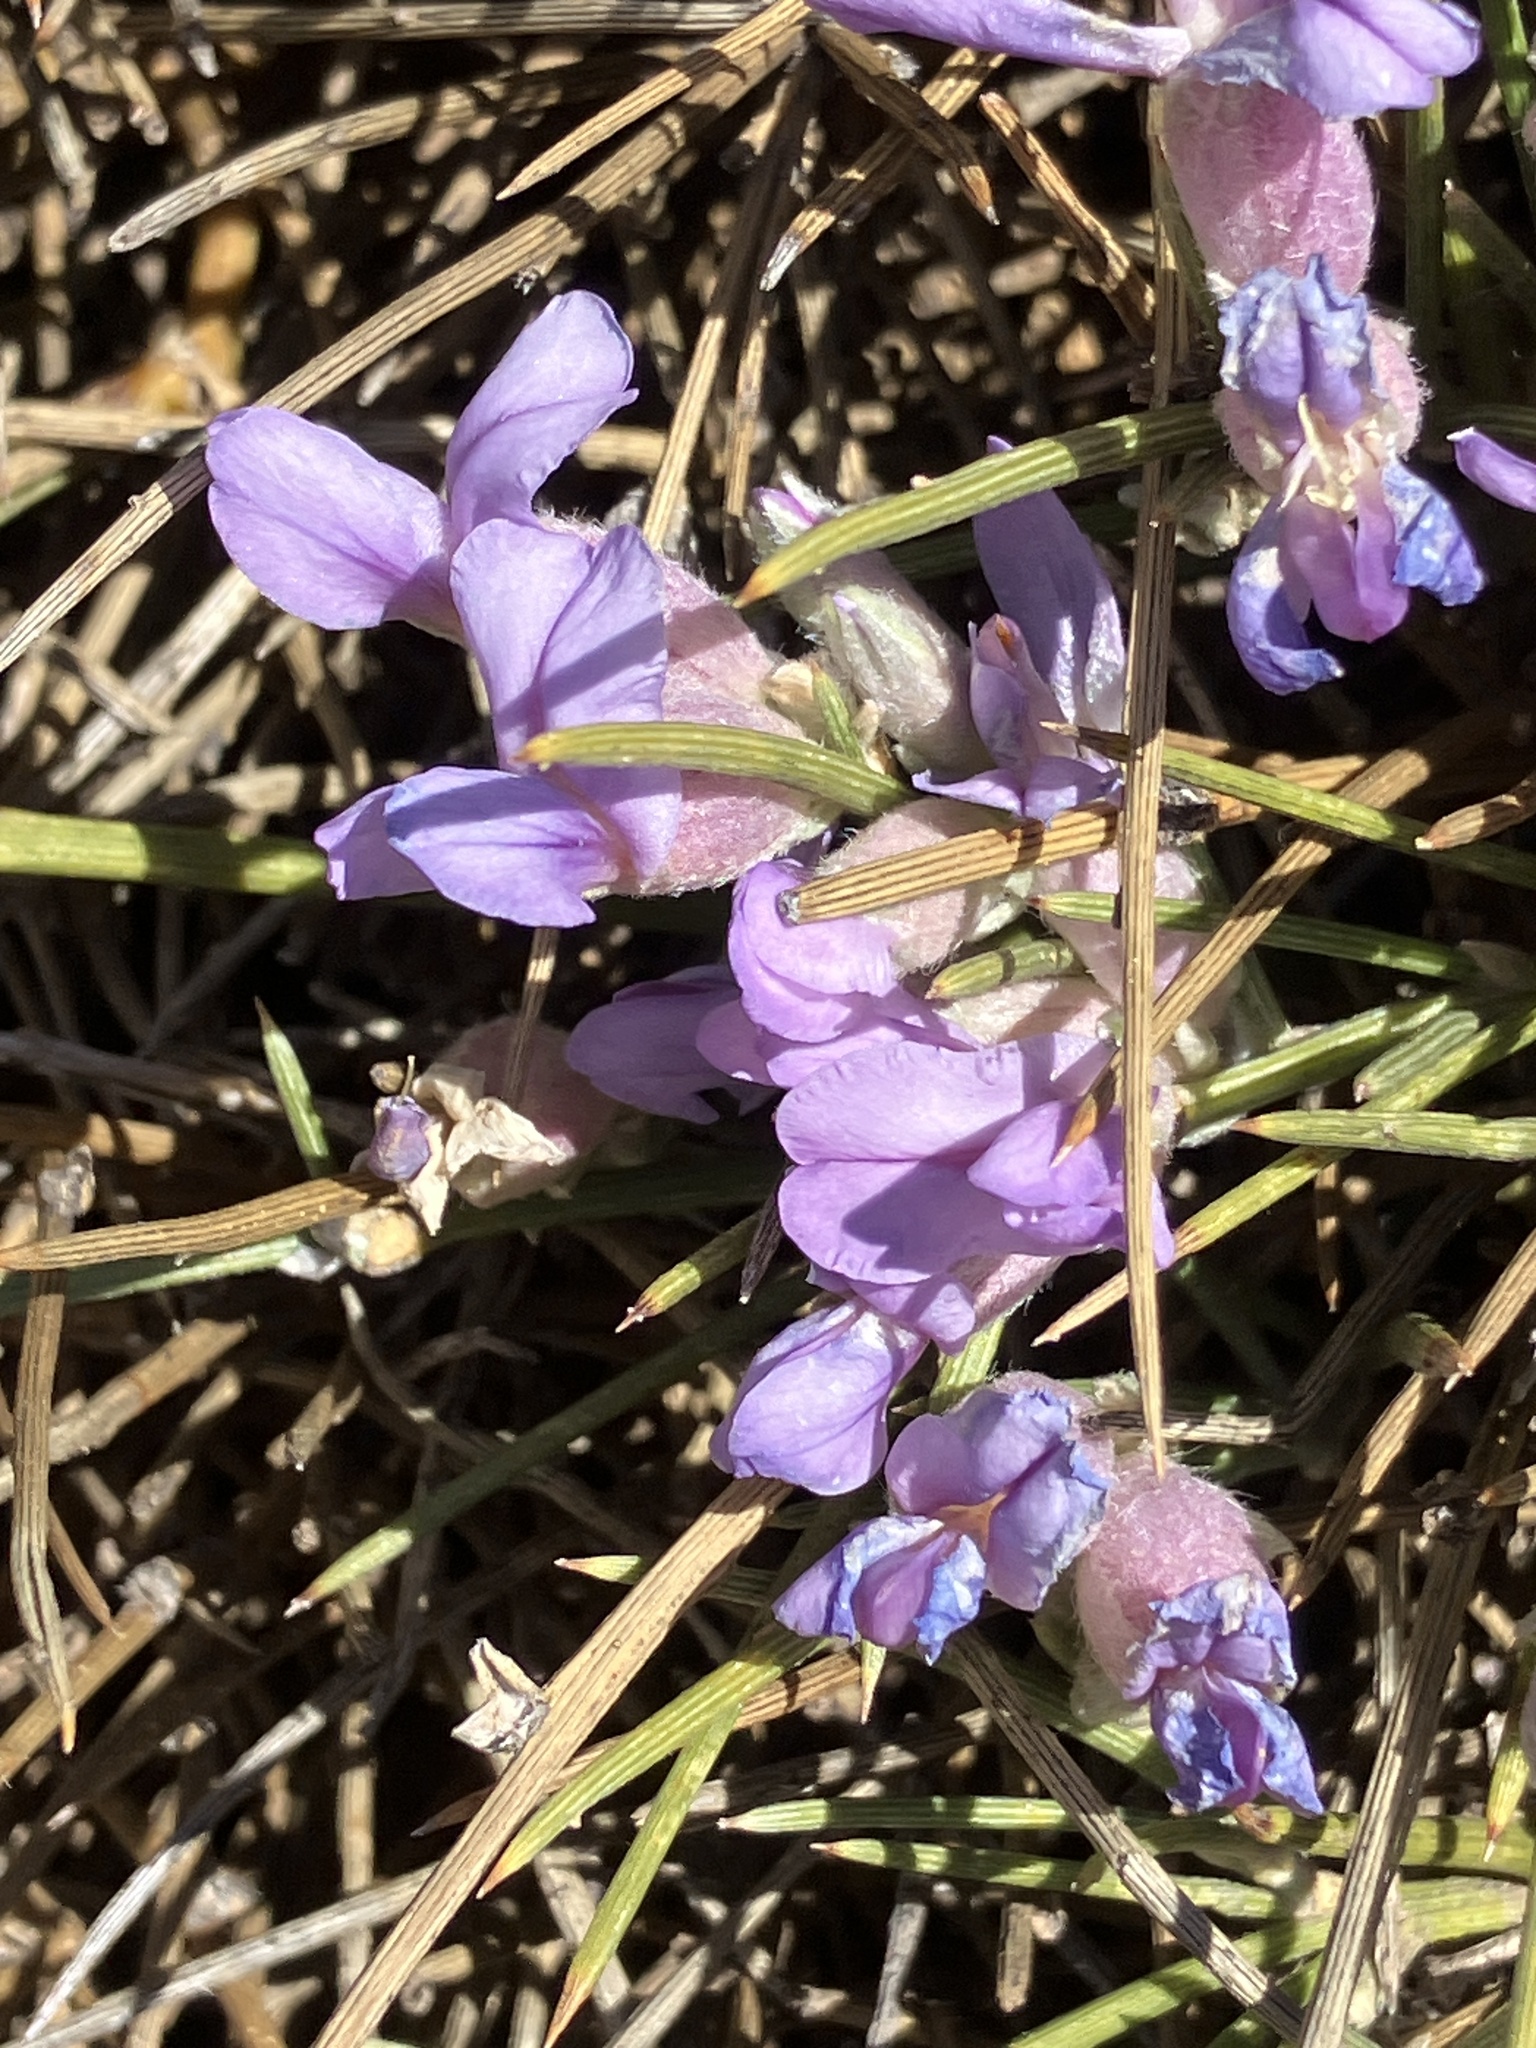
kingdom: Plantae
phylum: Tracheophyta
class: Magnoliopsida
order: Fabales
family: Fabaceae
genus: Erinacea
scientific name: Erinacea anthyllis
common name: Hedgehog-broom
